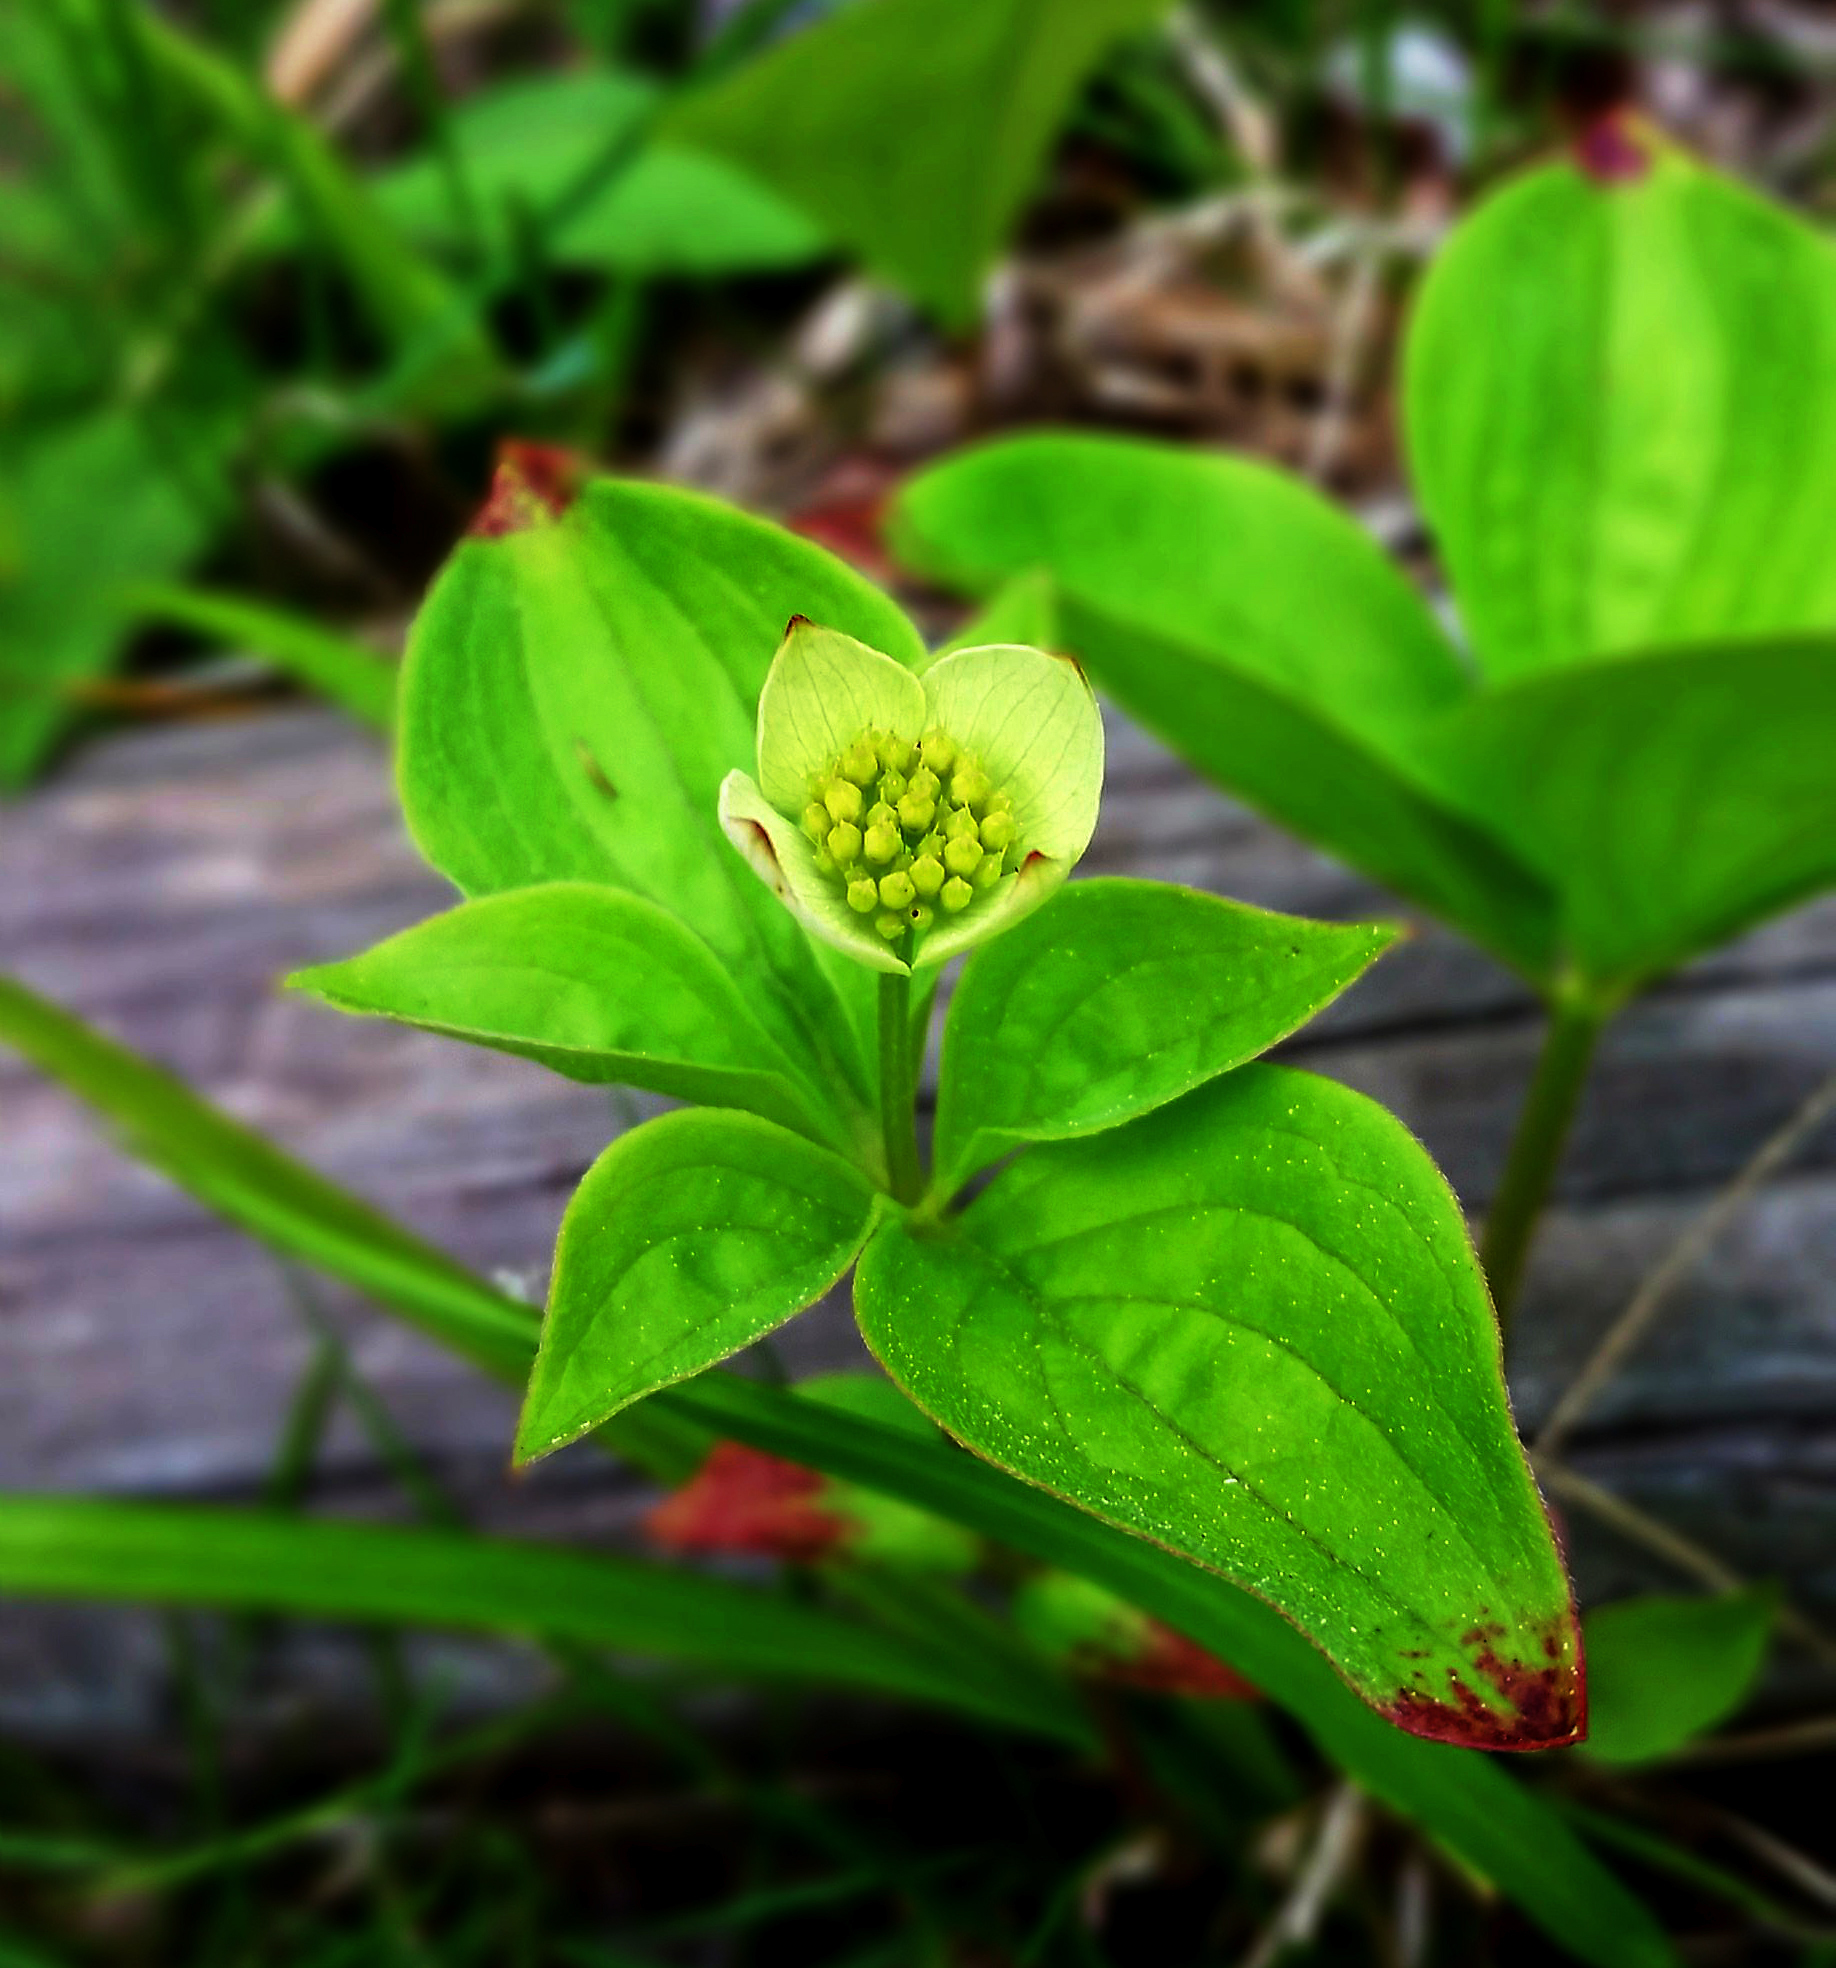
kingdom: Plantae
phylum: Tracheophyta
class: Magnoliopsida
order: Cornales
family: Cornaceae
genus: Cornus
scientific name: Cornus canadensis
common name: Creeping dogwood
